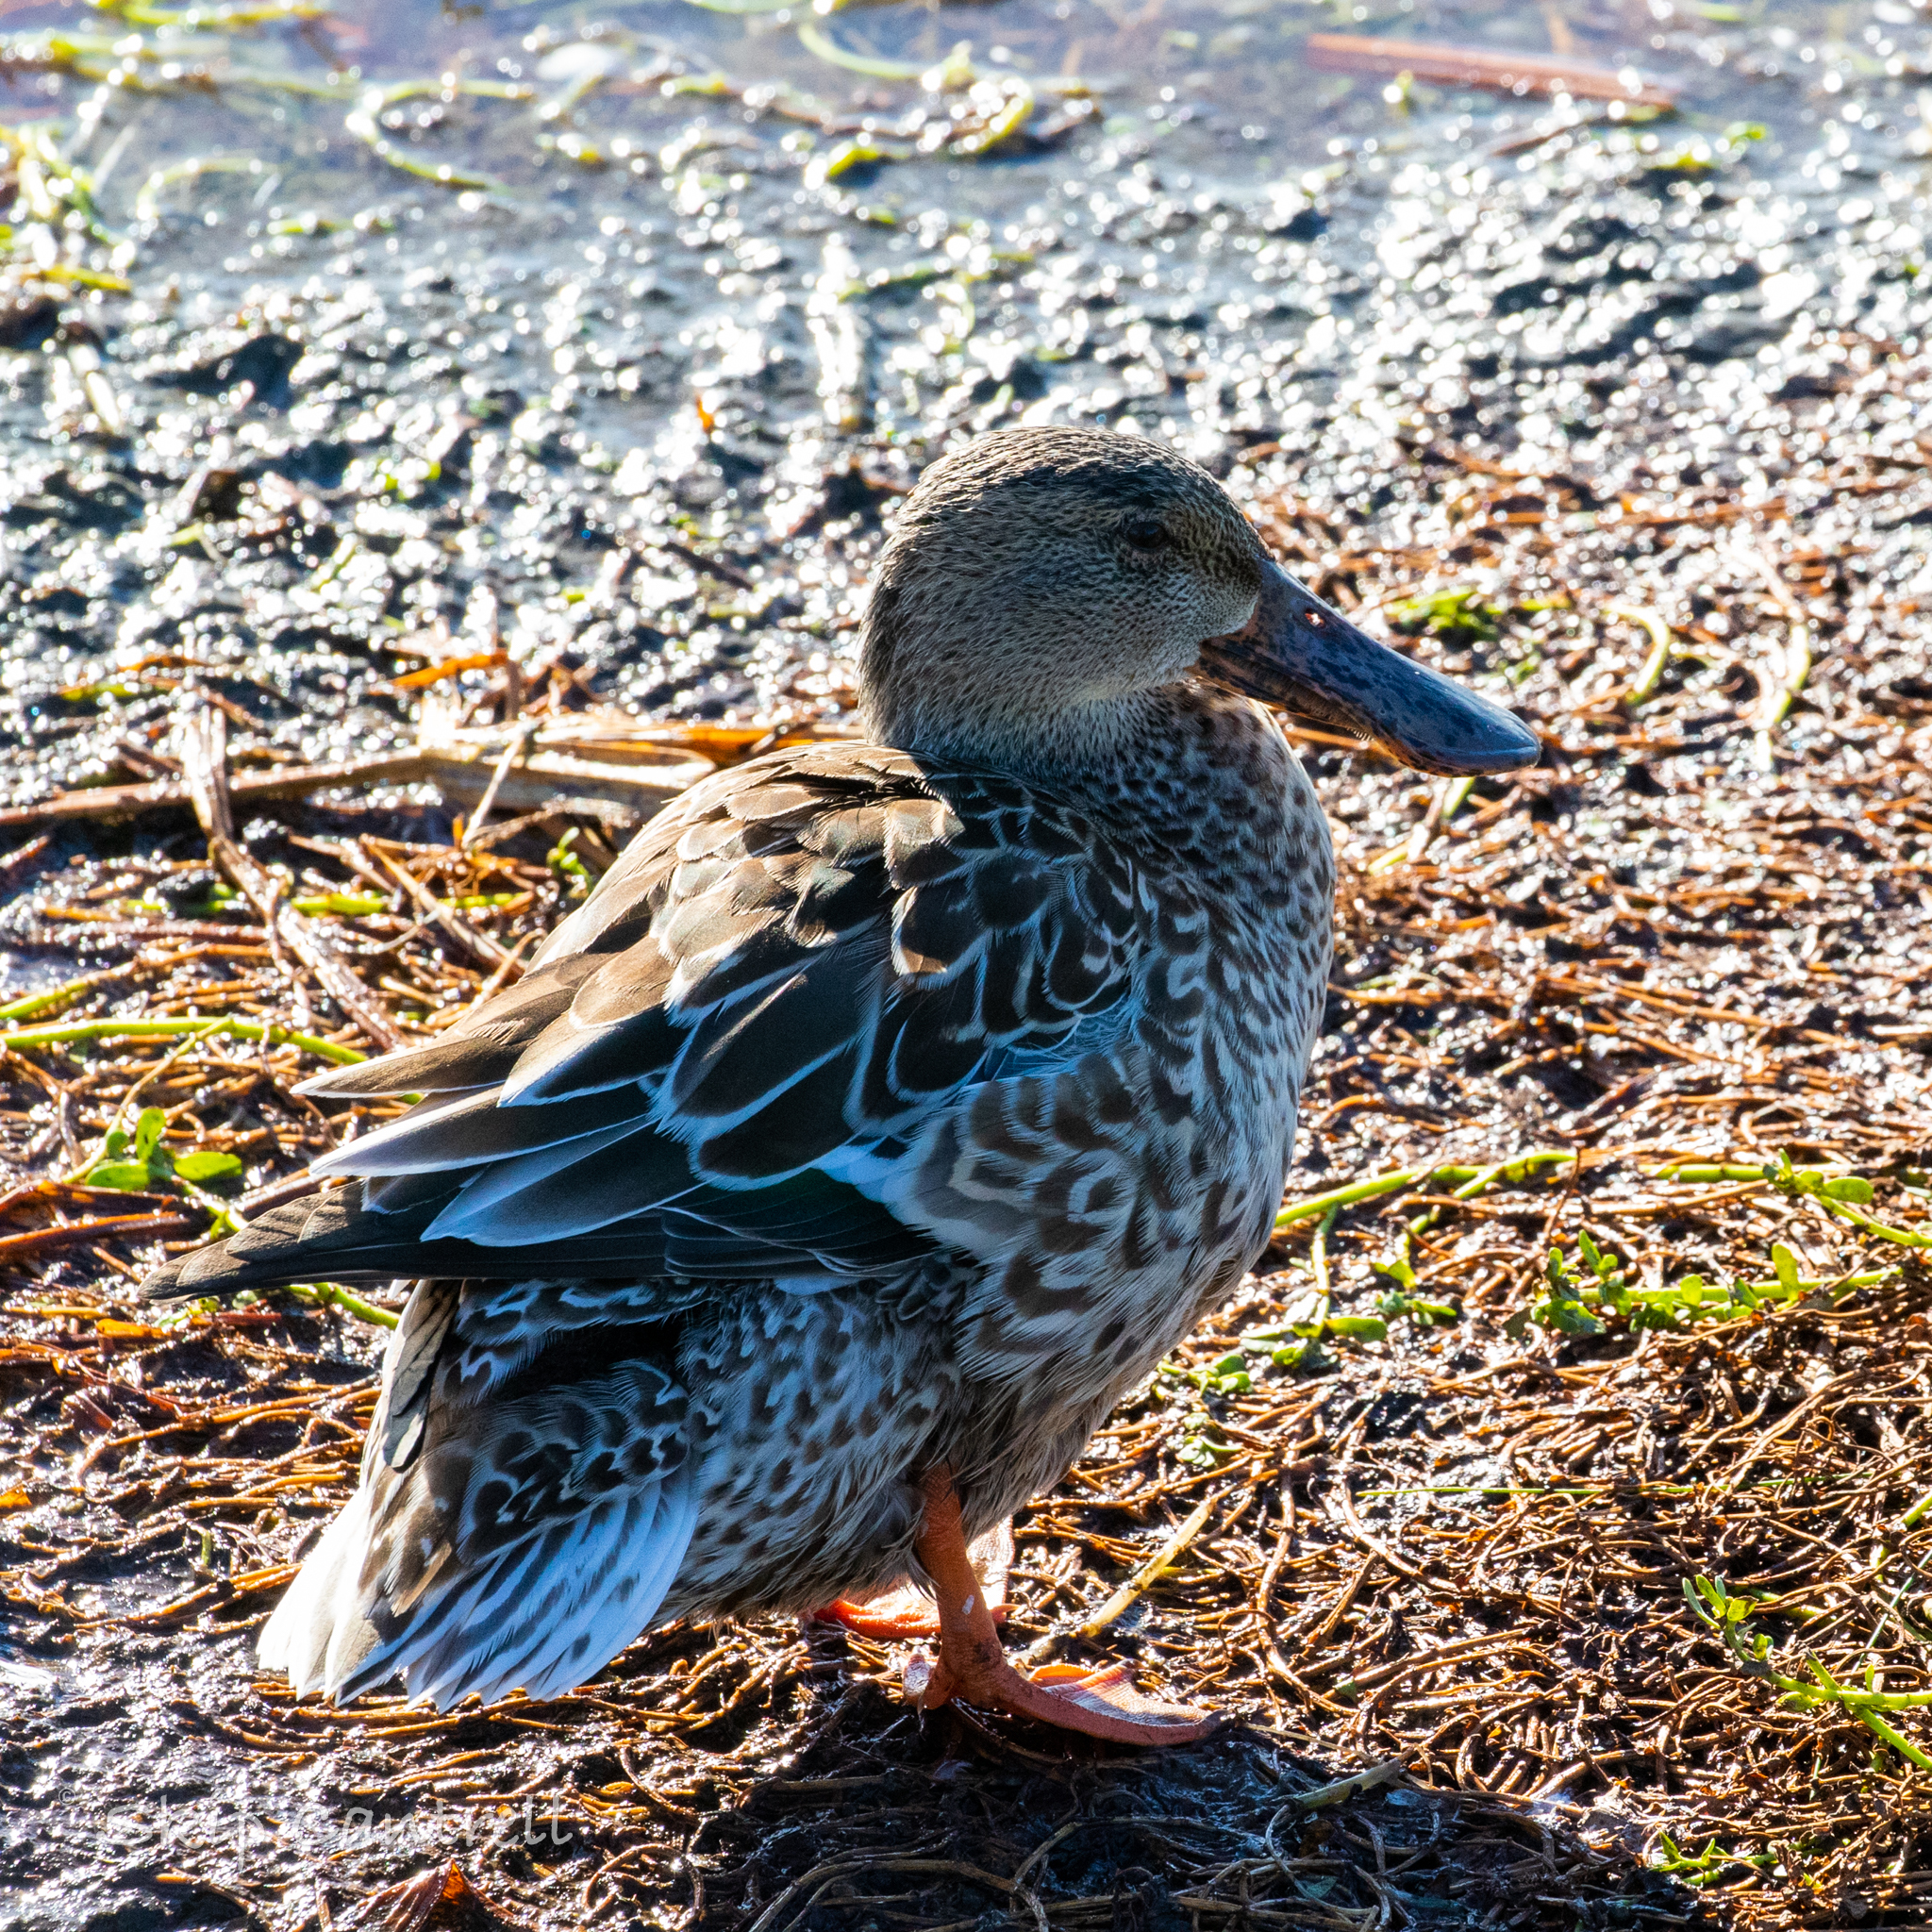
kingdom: Animalia
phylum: Chordata
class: Aves
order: Anseriformes
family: Anatidae
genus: Spatula
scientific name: Spatula clypeata
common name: Northern shoveler
